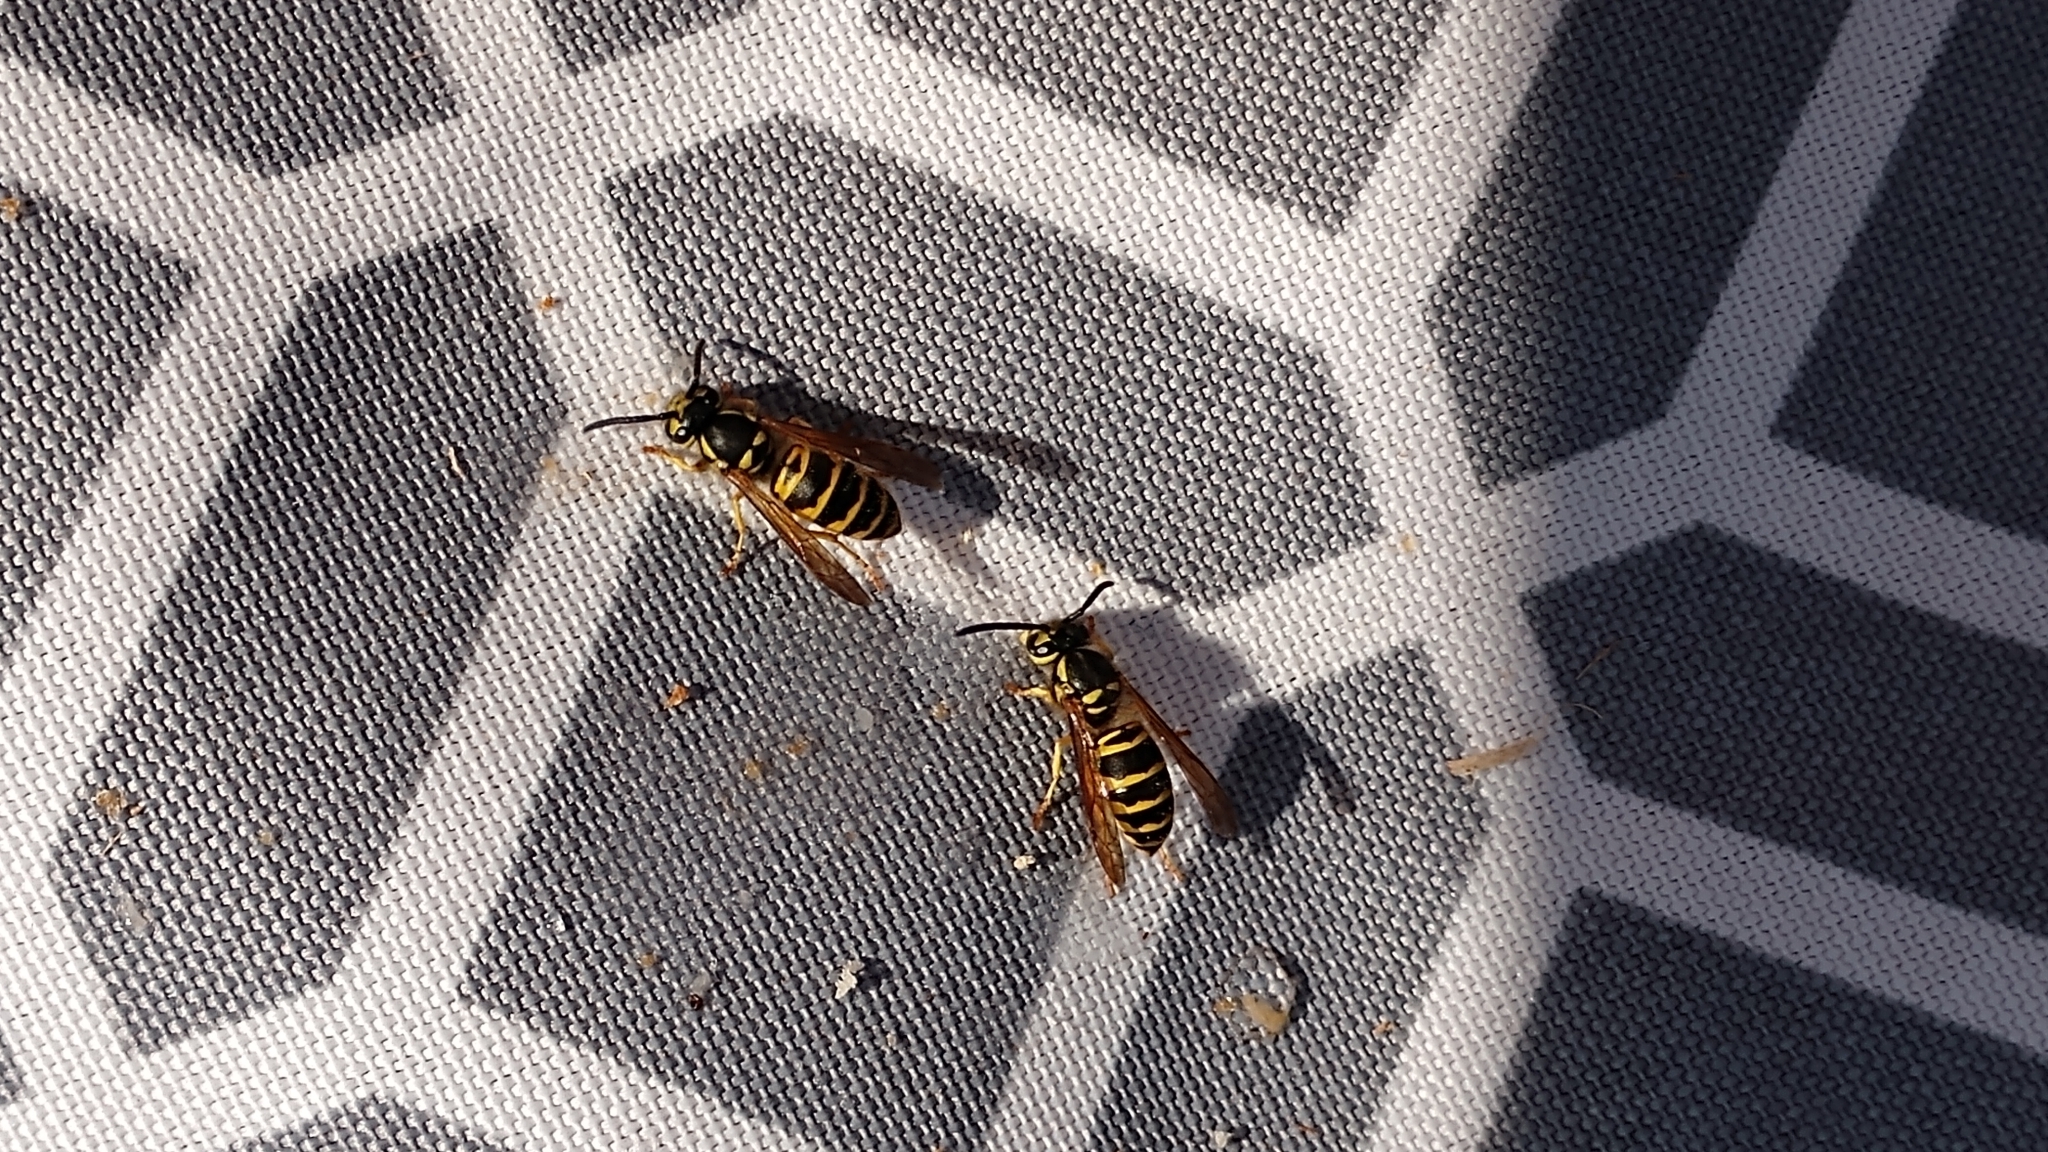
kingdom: Animalia
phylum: Arthropoda
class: Insecta
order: Hymenoptera
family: Vespidae
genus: Vespula
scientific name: Vespula maculifrons
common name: Eastern yellowjacket
